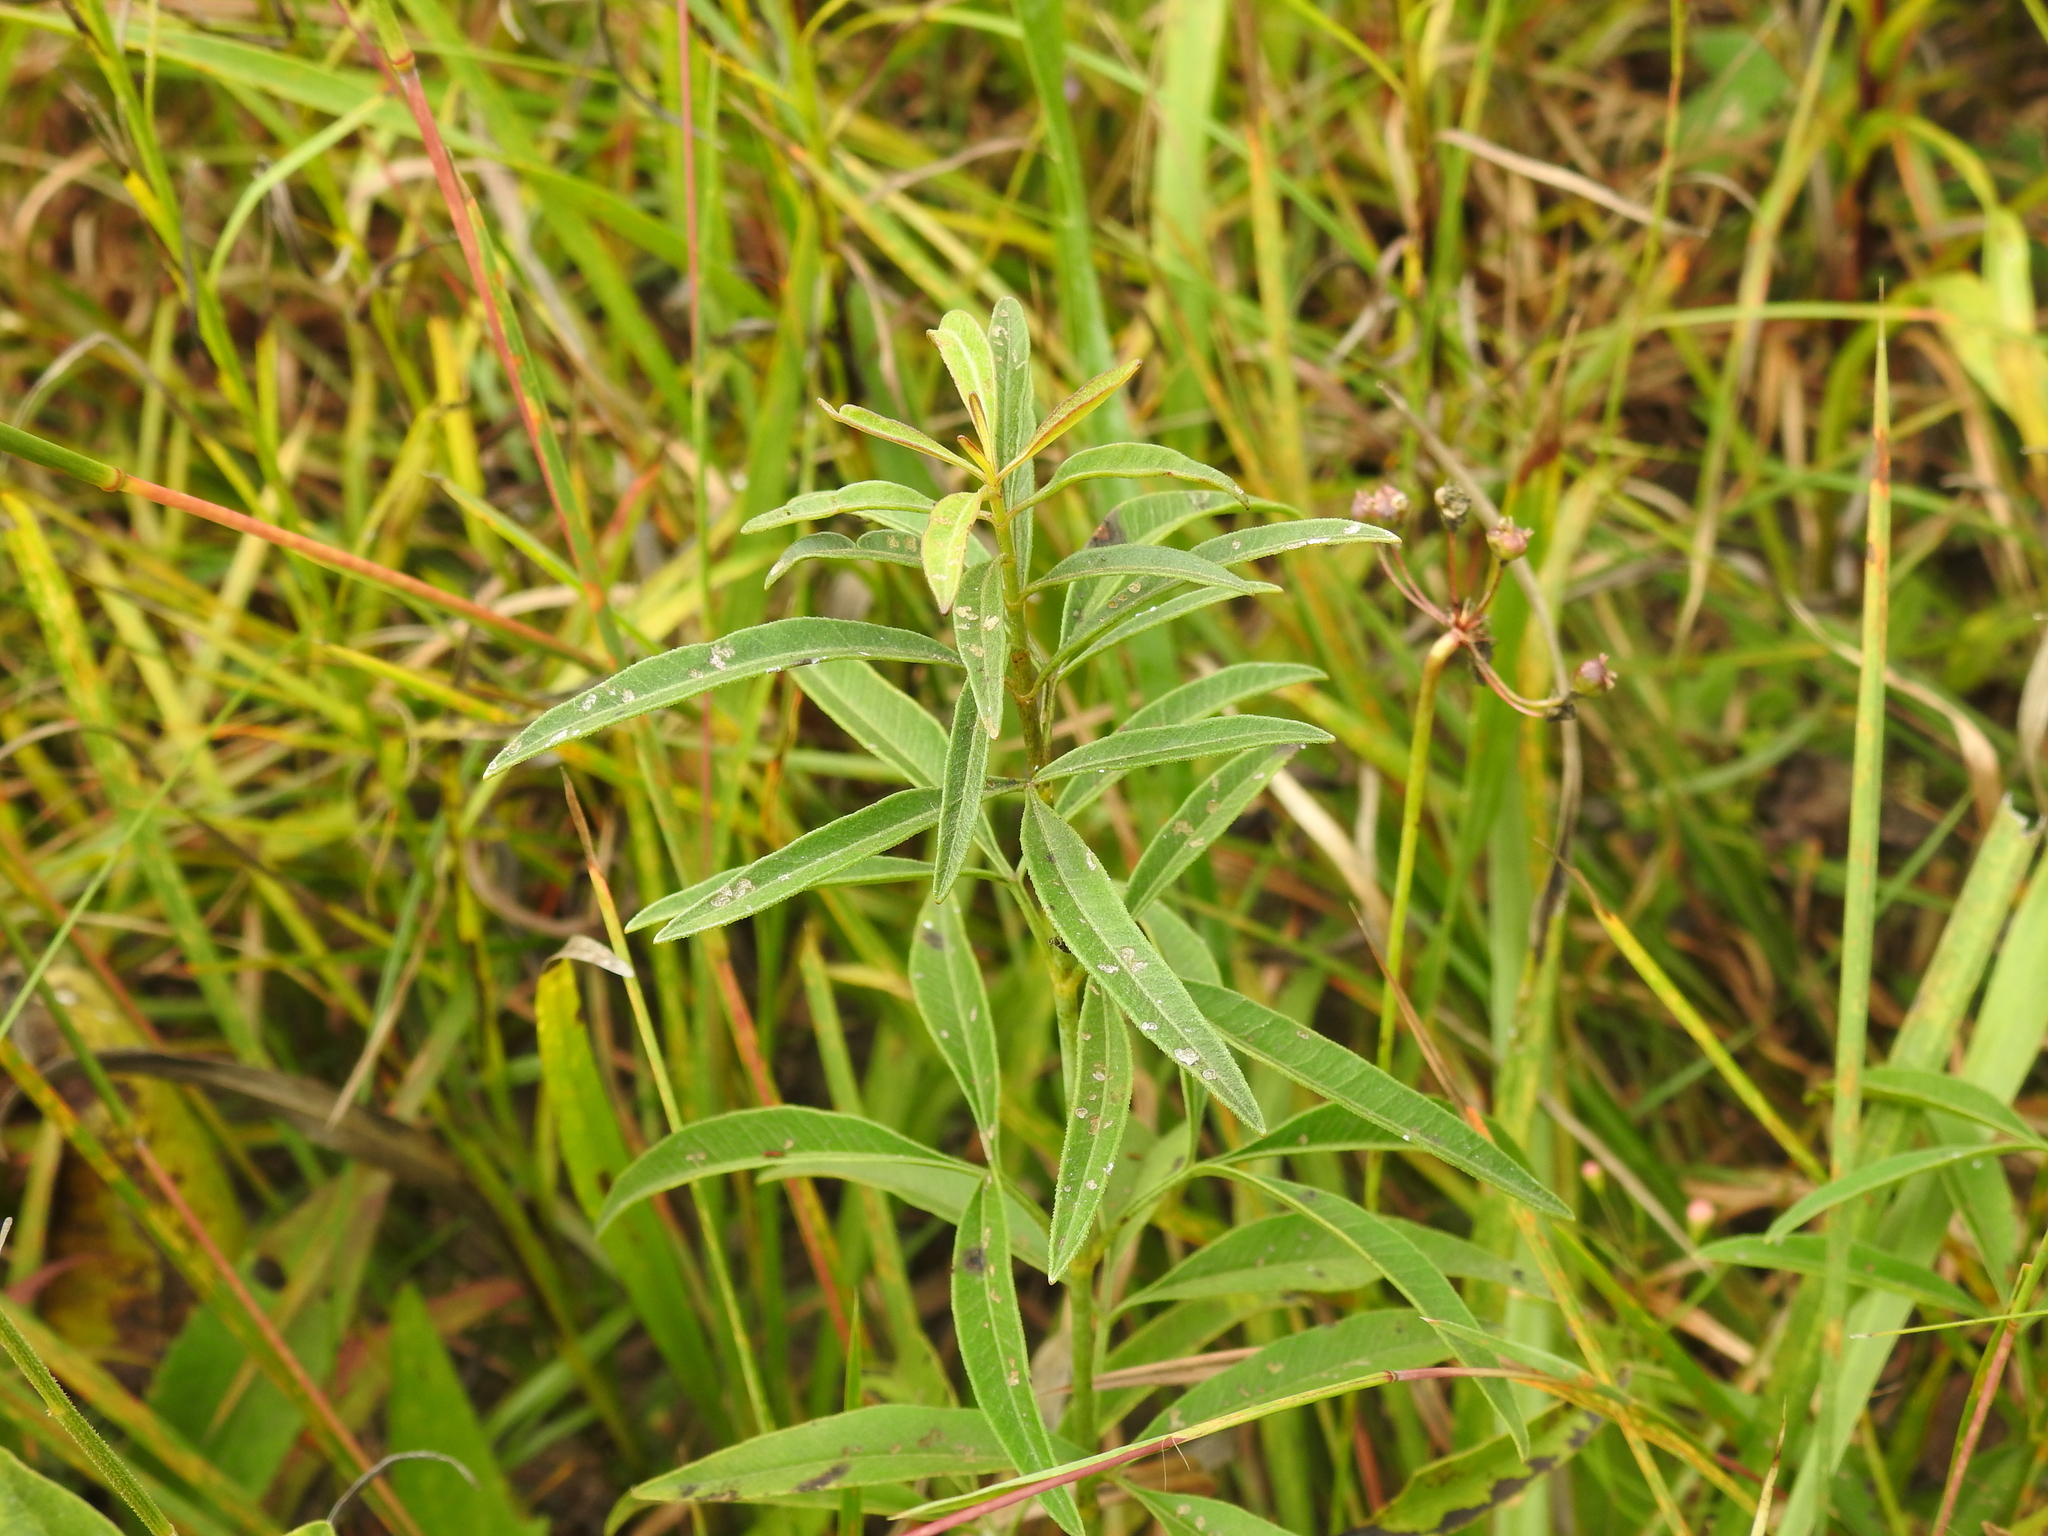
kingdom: Plantae
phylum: Tracheophyta
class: Magnoliopsida
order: Asterales
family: Asteraceae
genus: Coreopsis
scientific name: Coreopsis tripteris
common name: Tall coreopsis
